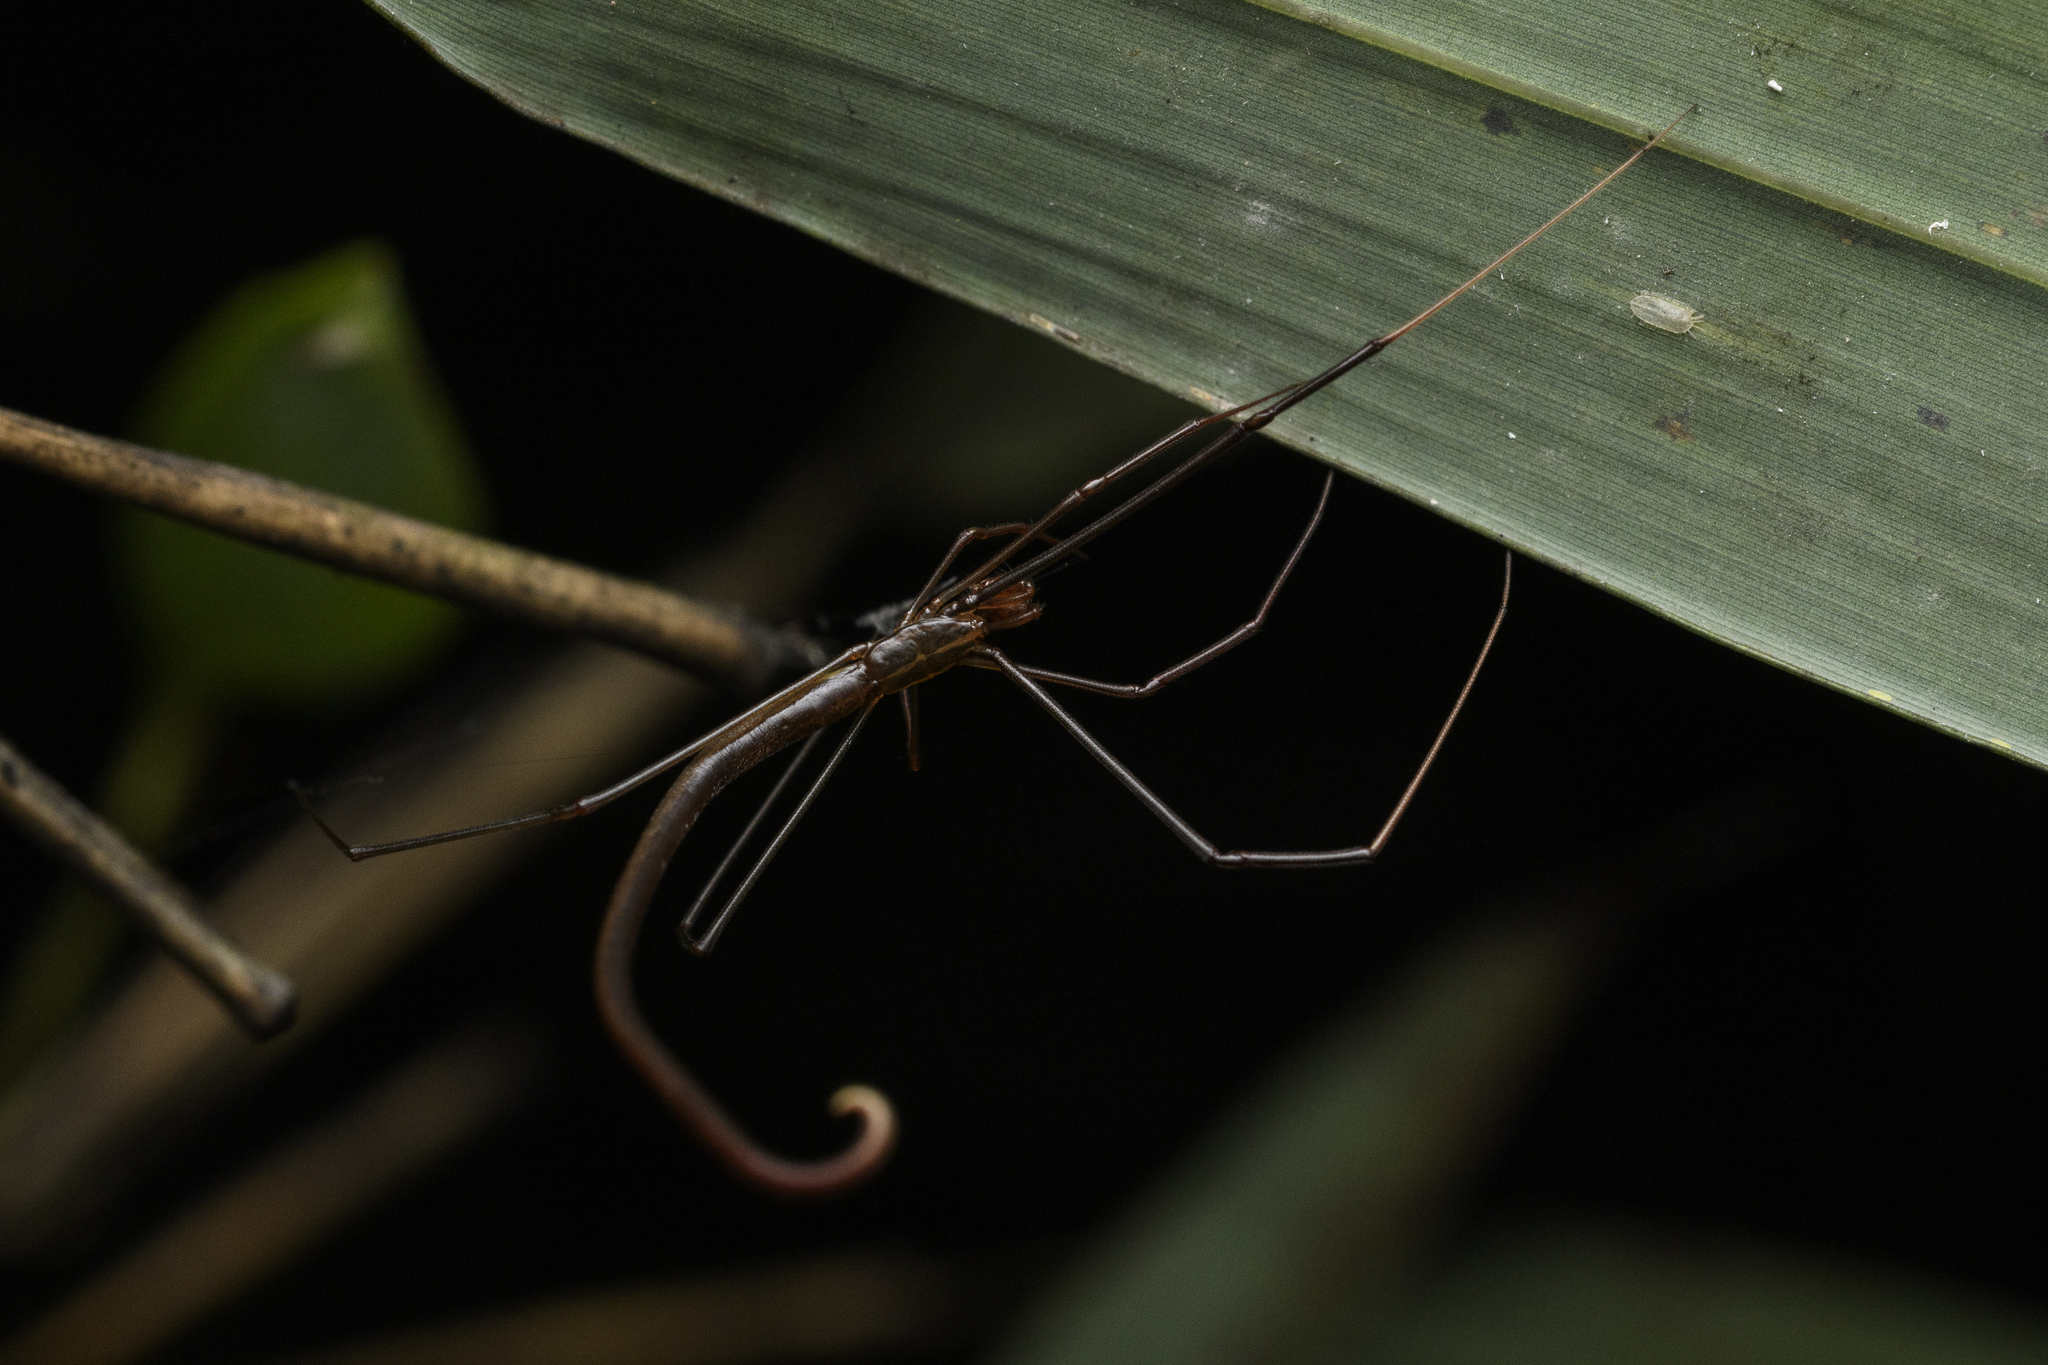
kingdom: Animalia
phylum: Arthropoda
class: Arachnida
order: Araneae
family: Theridiidae
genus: Ariamnes
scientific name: Ariamnes cylindrogaster
